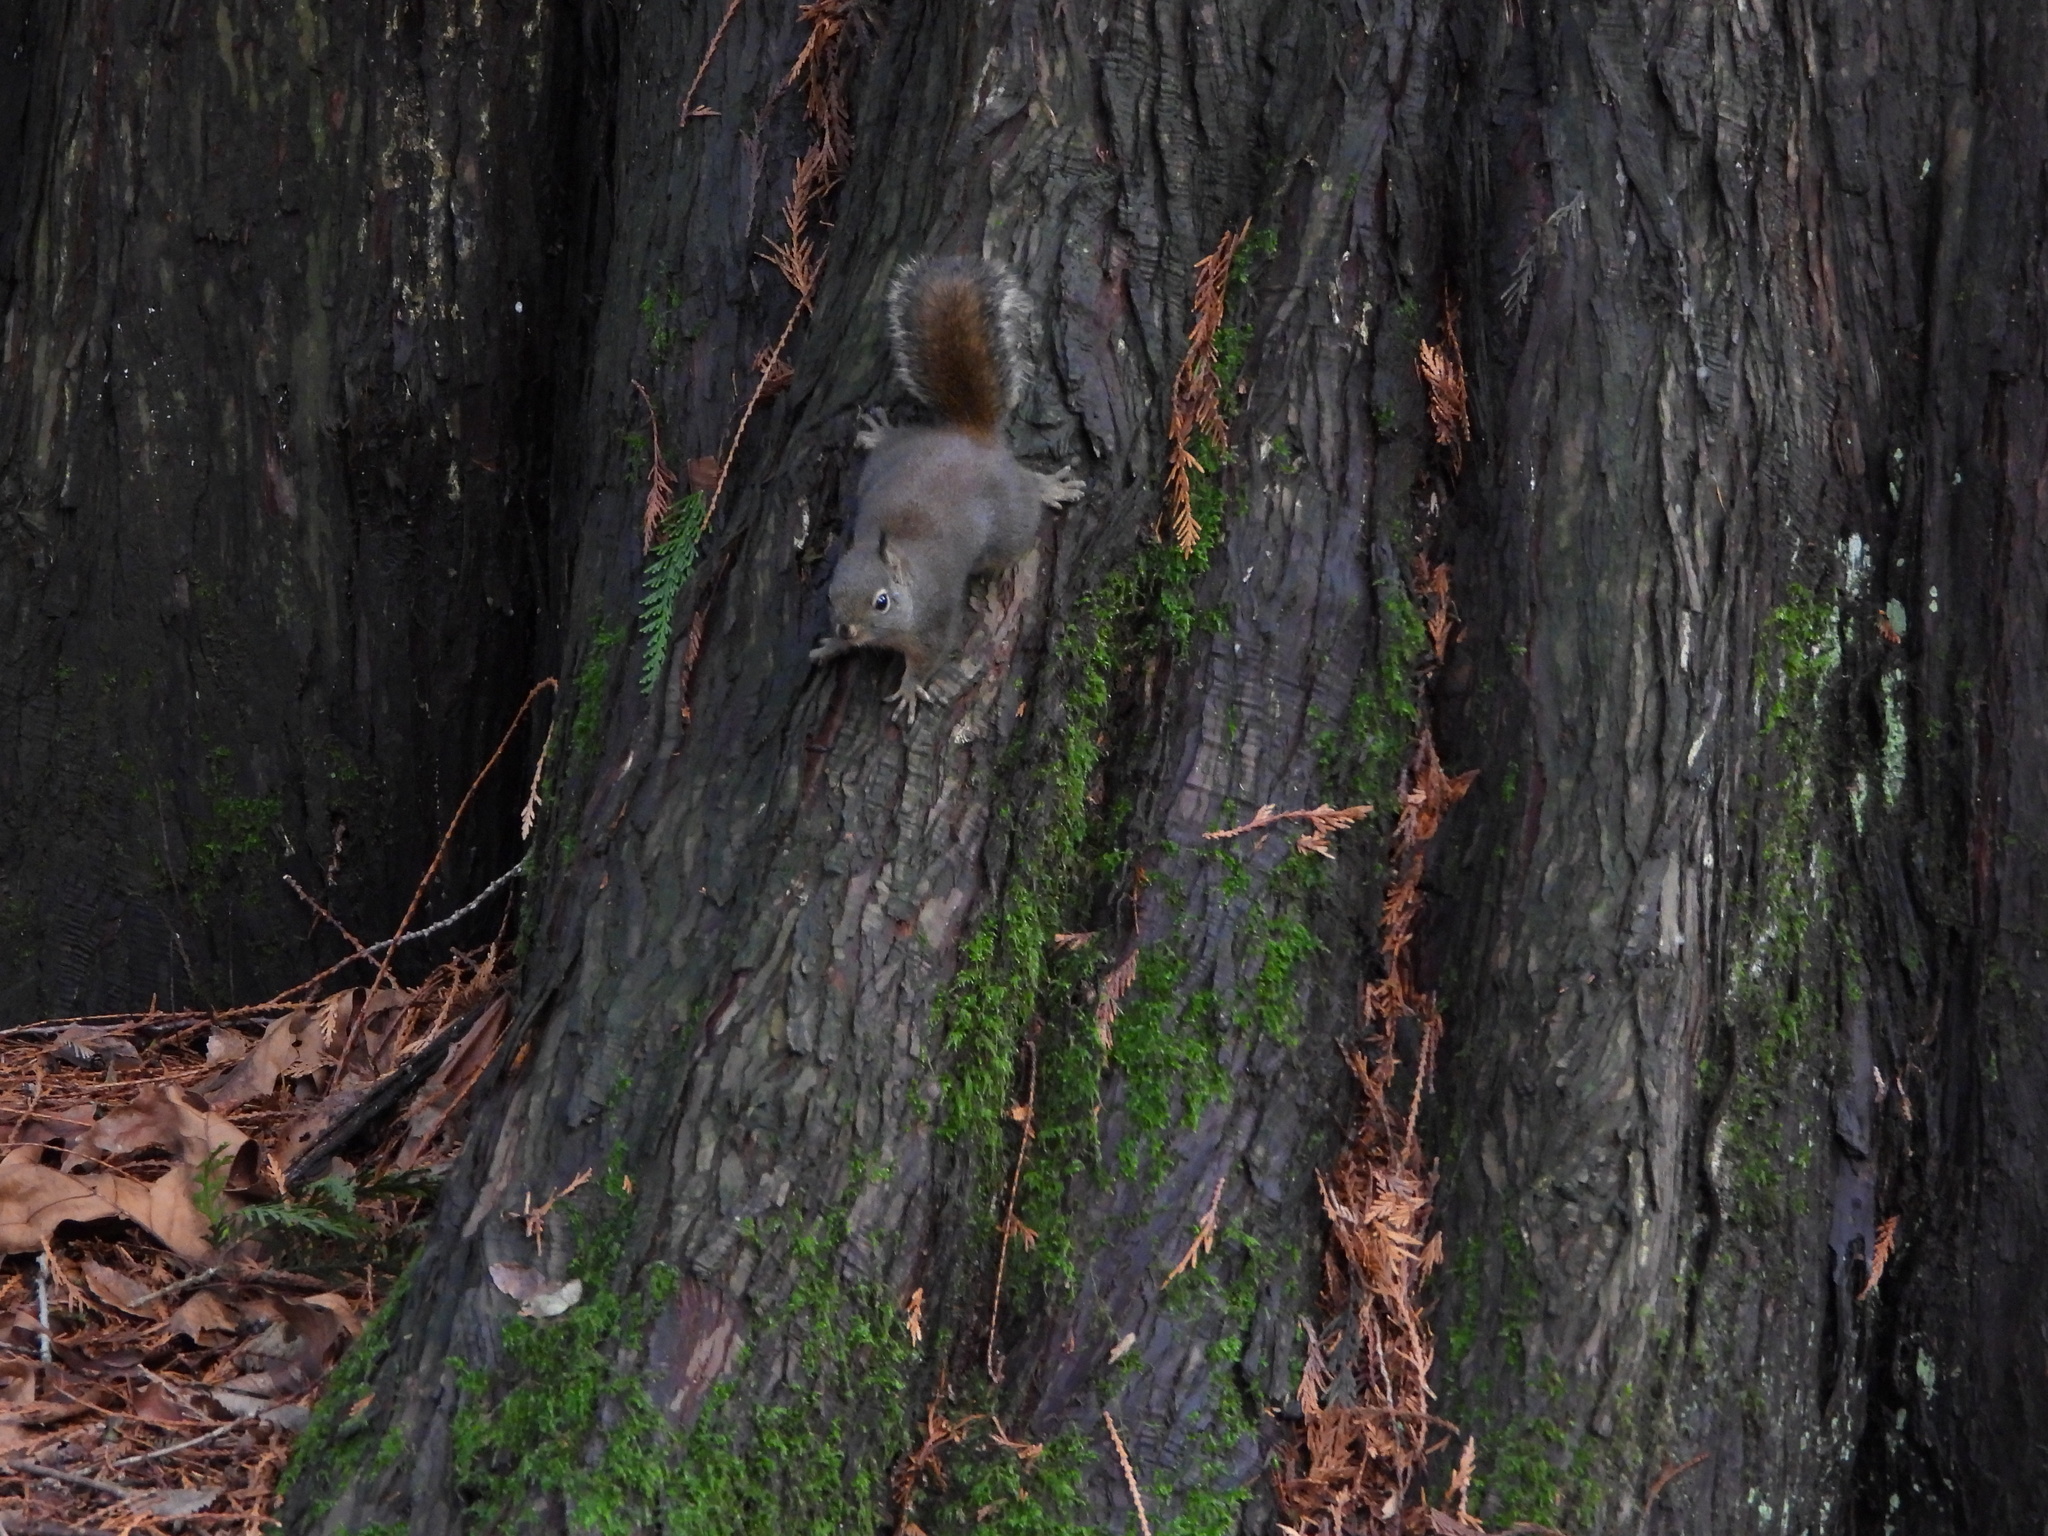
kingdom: Animalia
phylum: Chordata
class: Mammalia
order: Rodentia
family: Sciuridae
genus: Tamiasciurus
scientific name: Tamiasciurus douglasii
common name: Douglas's squirrel
